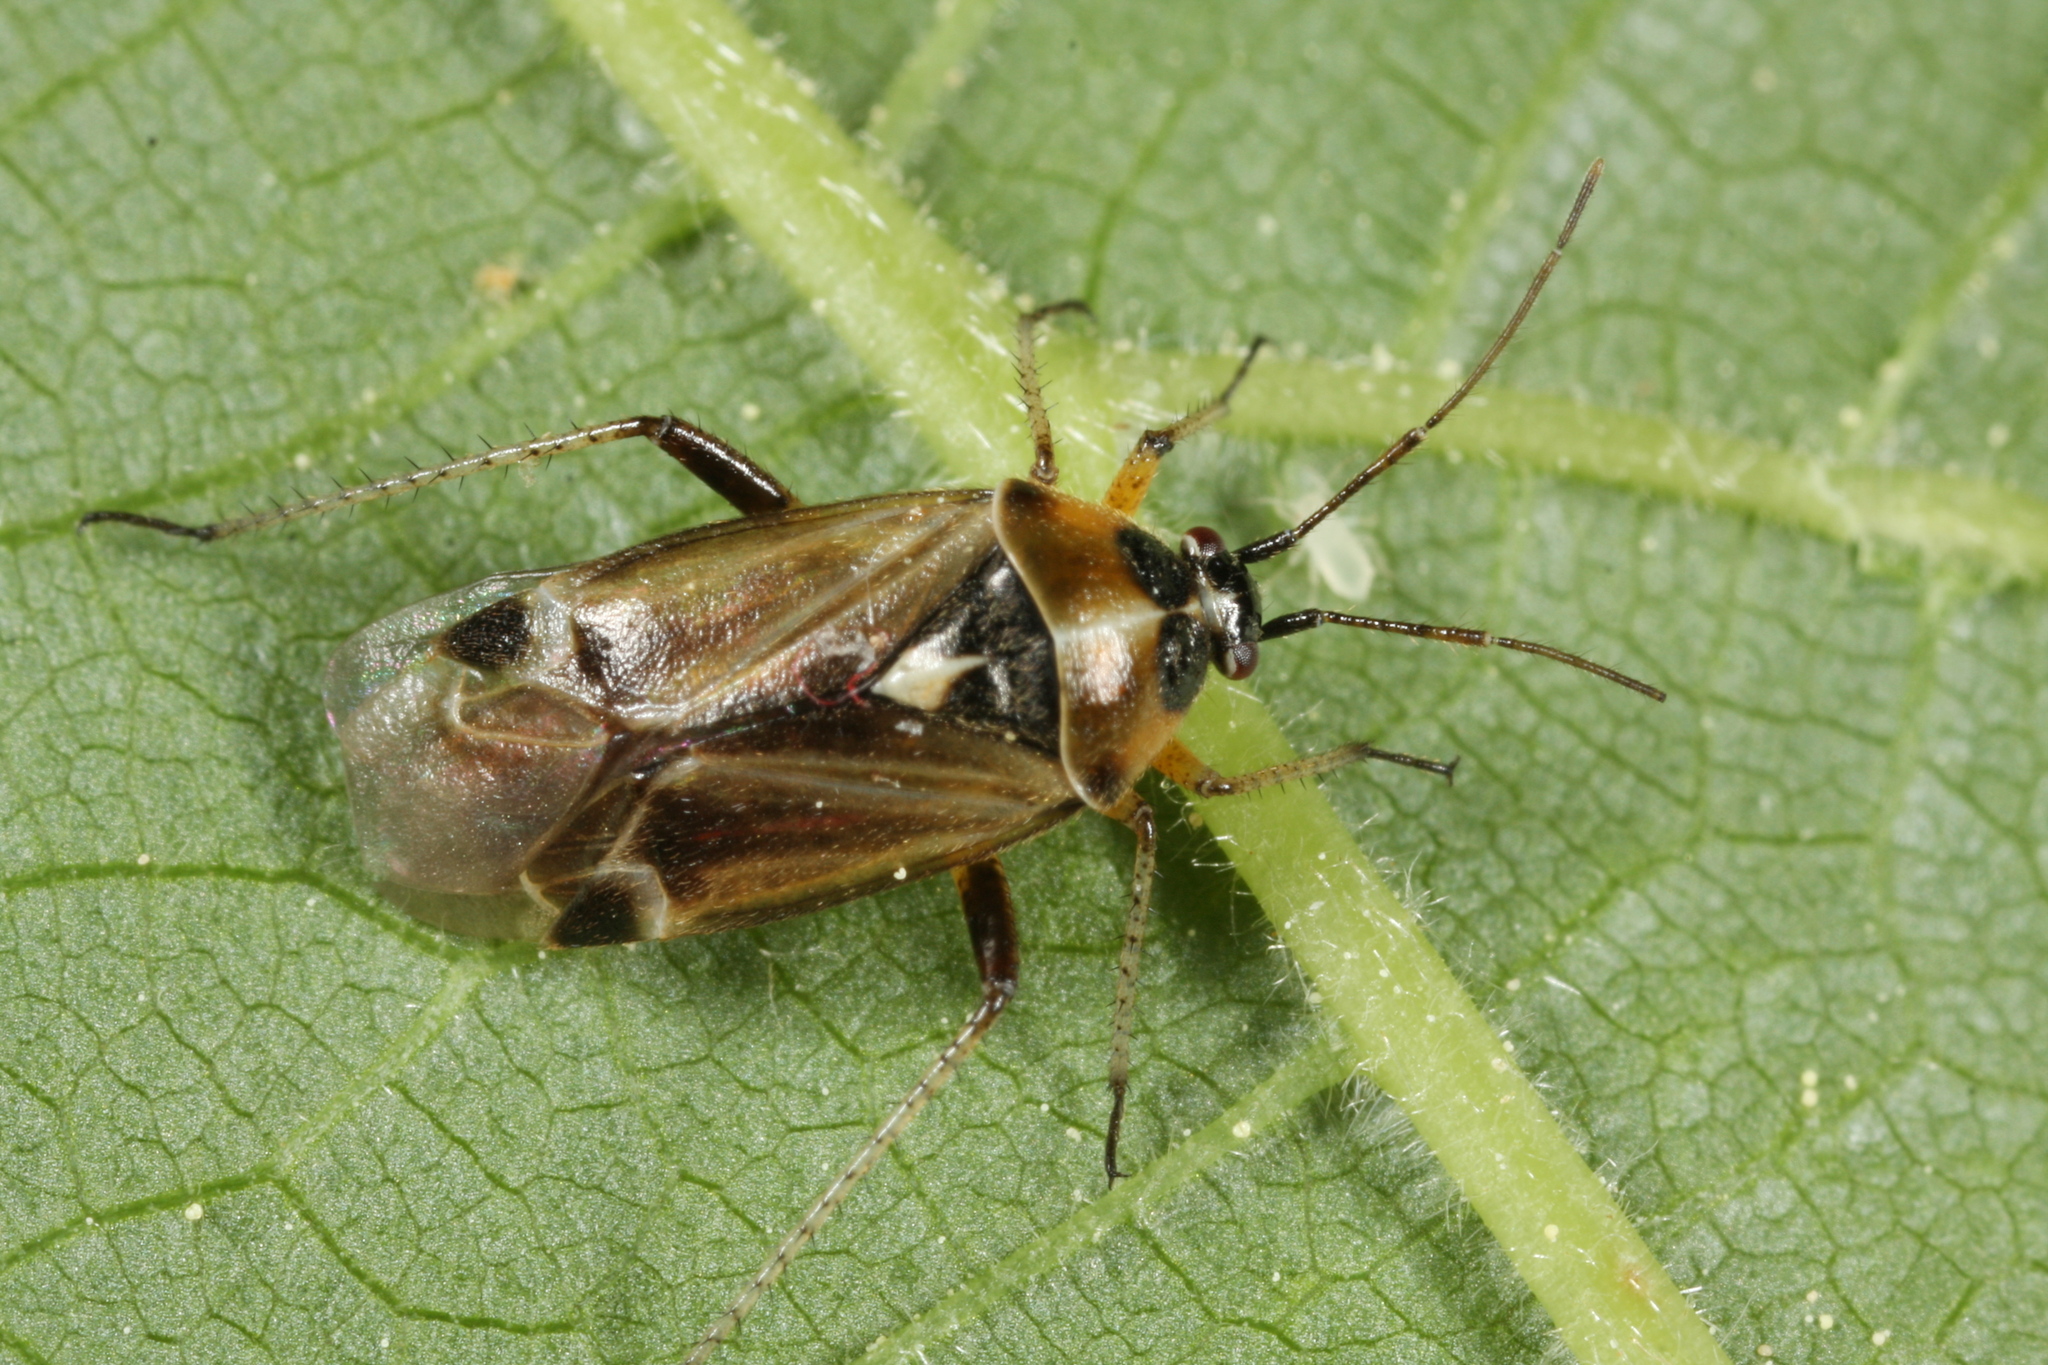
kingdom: Animalia
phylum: Arthropoda
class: Insecta
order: Hemiptera
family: Miridae
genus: Harpocera
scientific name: Harpocera thoracica
